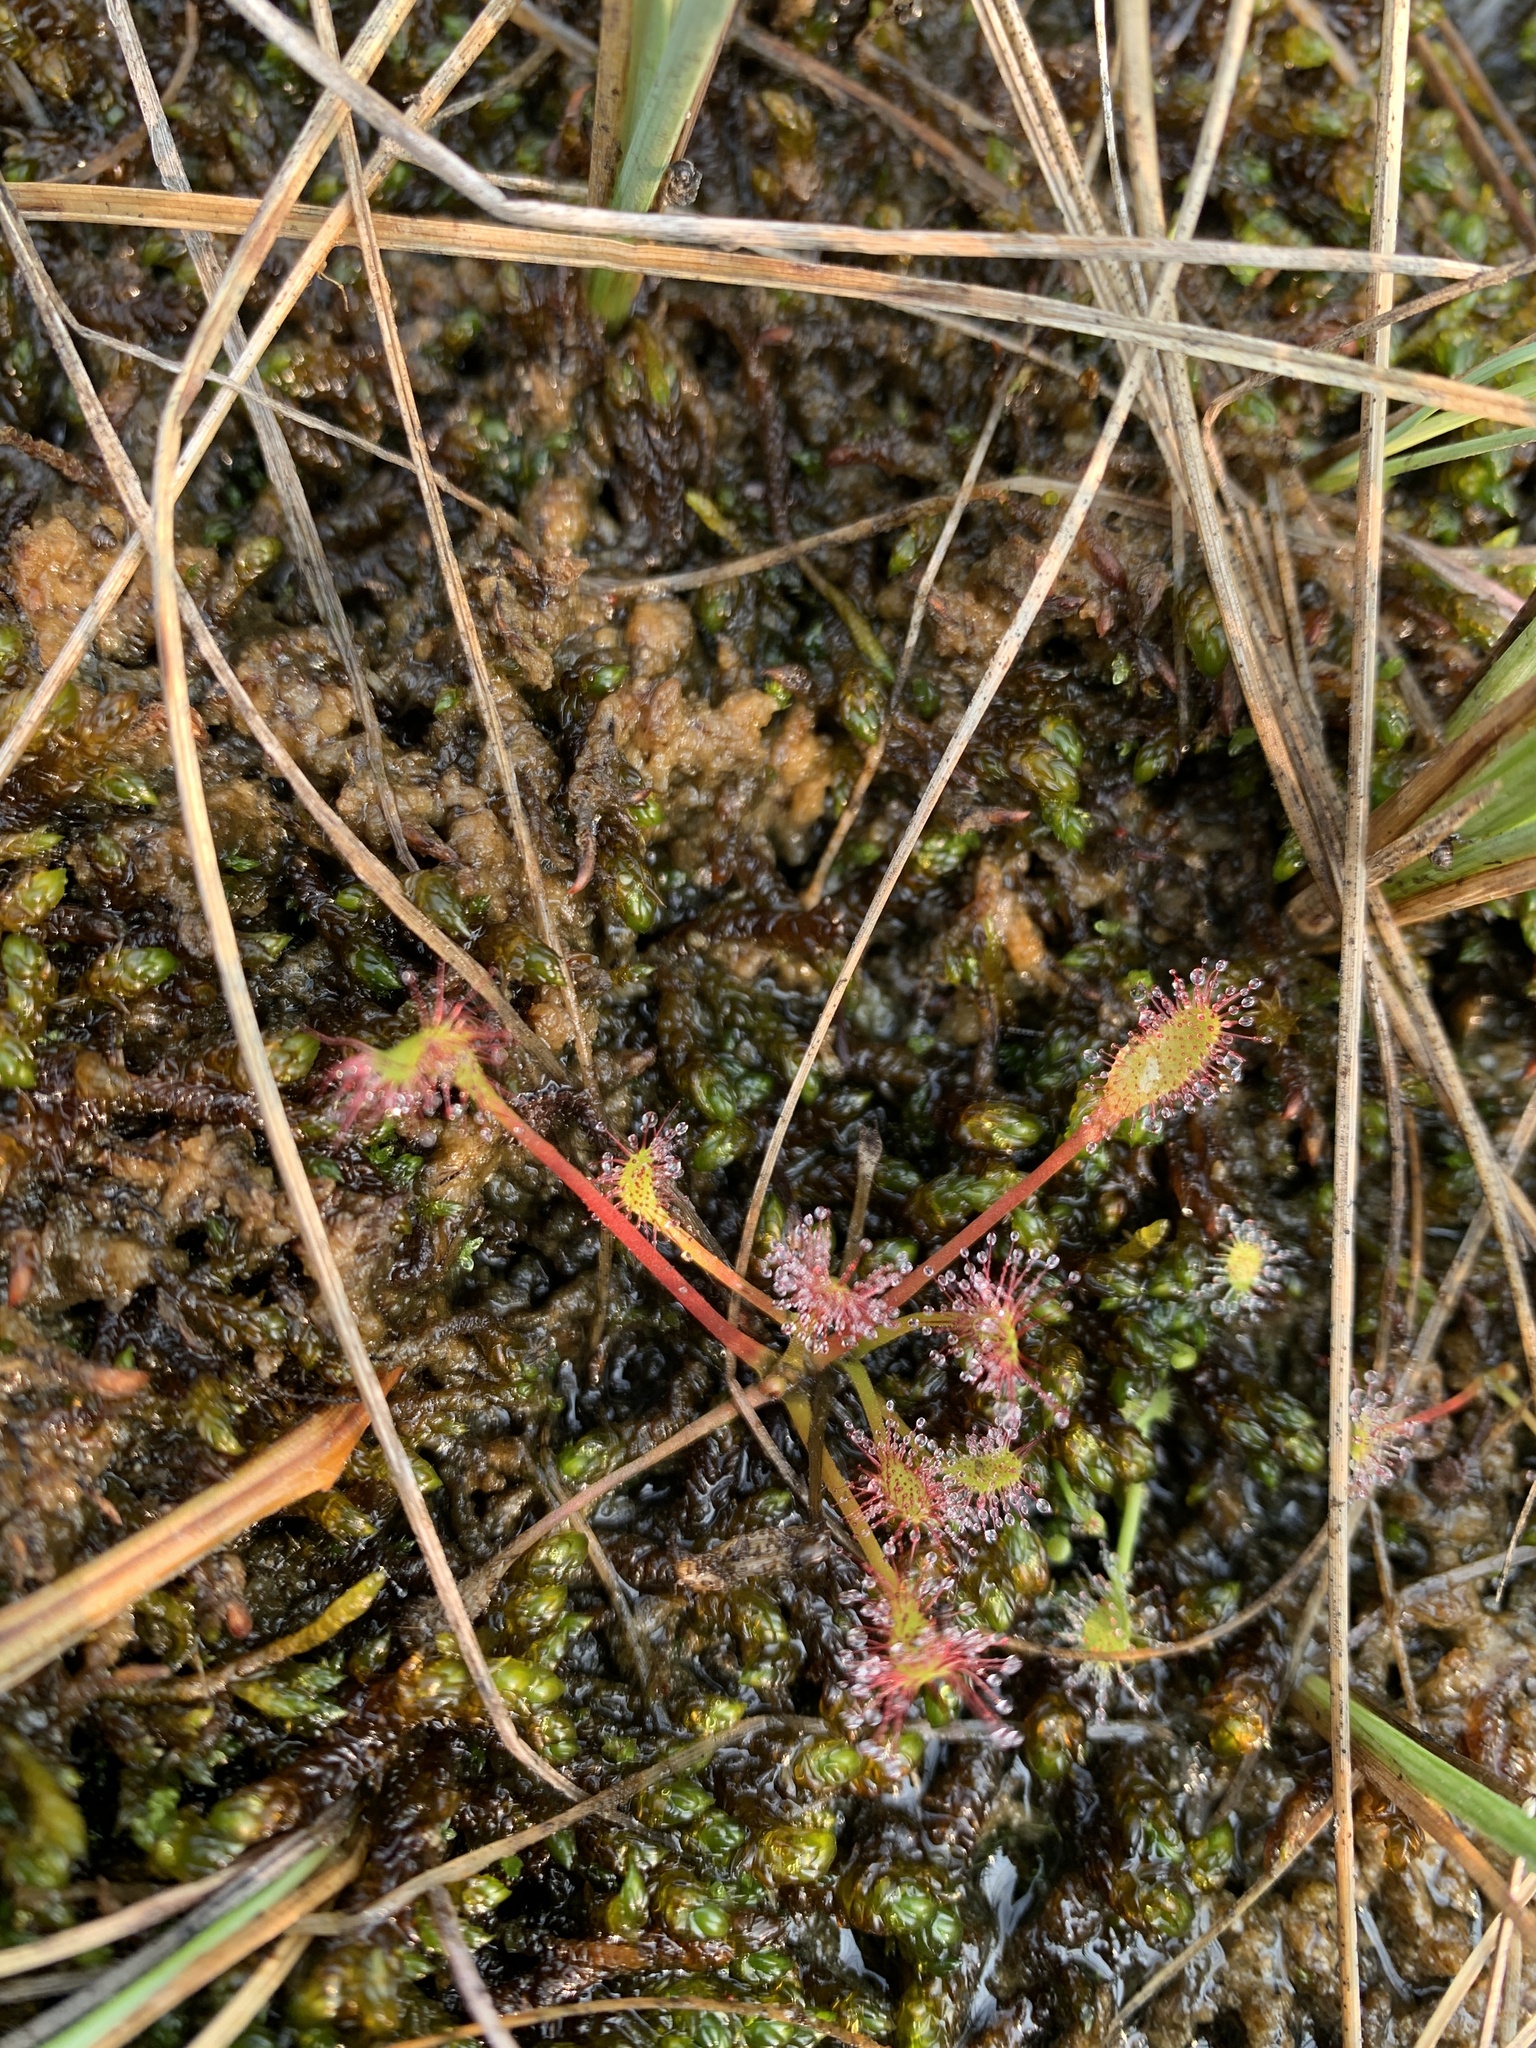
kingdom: Plantae
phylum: Tracheophyta
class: Magnoliopsida
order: Caryophyllales
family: Droseraceae
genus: Drosera
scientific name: Drosera anglica
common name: Great sundew
